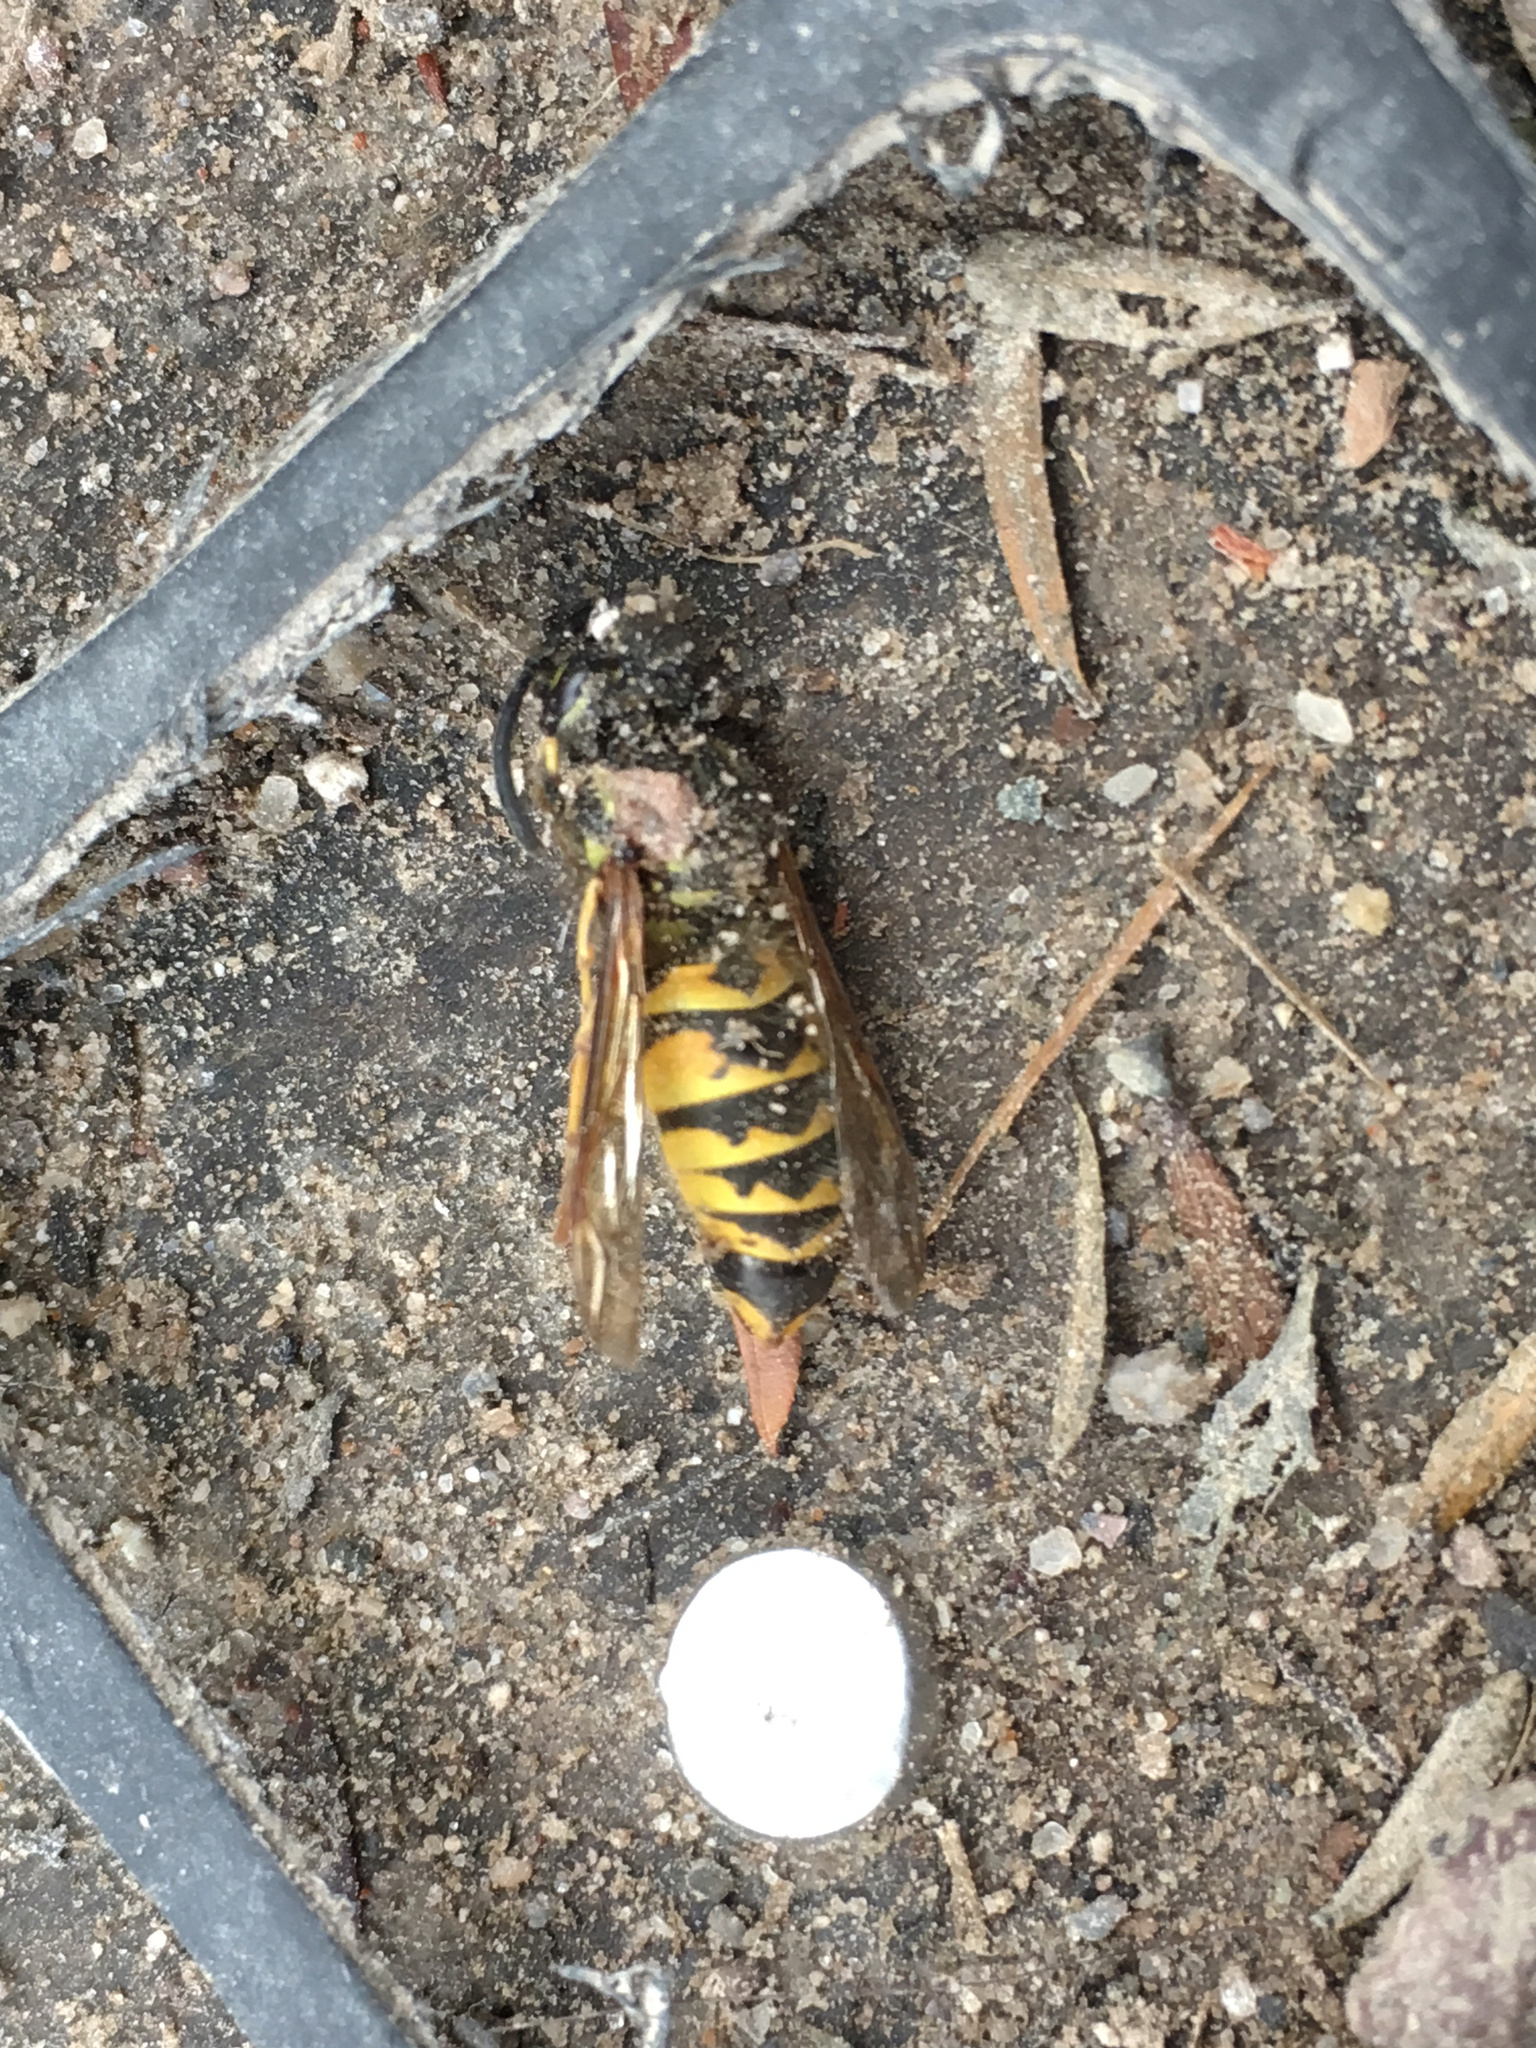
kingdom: Animalia
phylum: Arthropoda
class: Insecta
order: Hymenoptera
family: Vespidae
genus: Vespula
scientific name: Vespula vulgaris
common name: Common wasp
